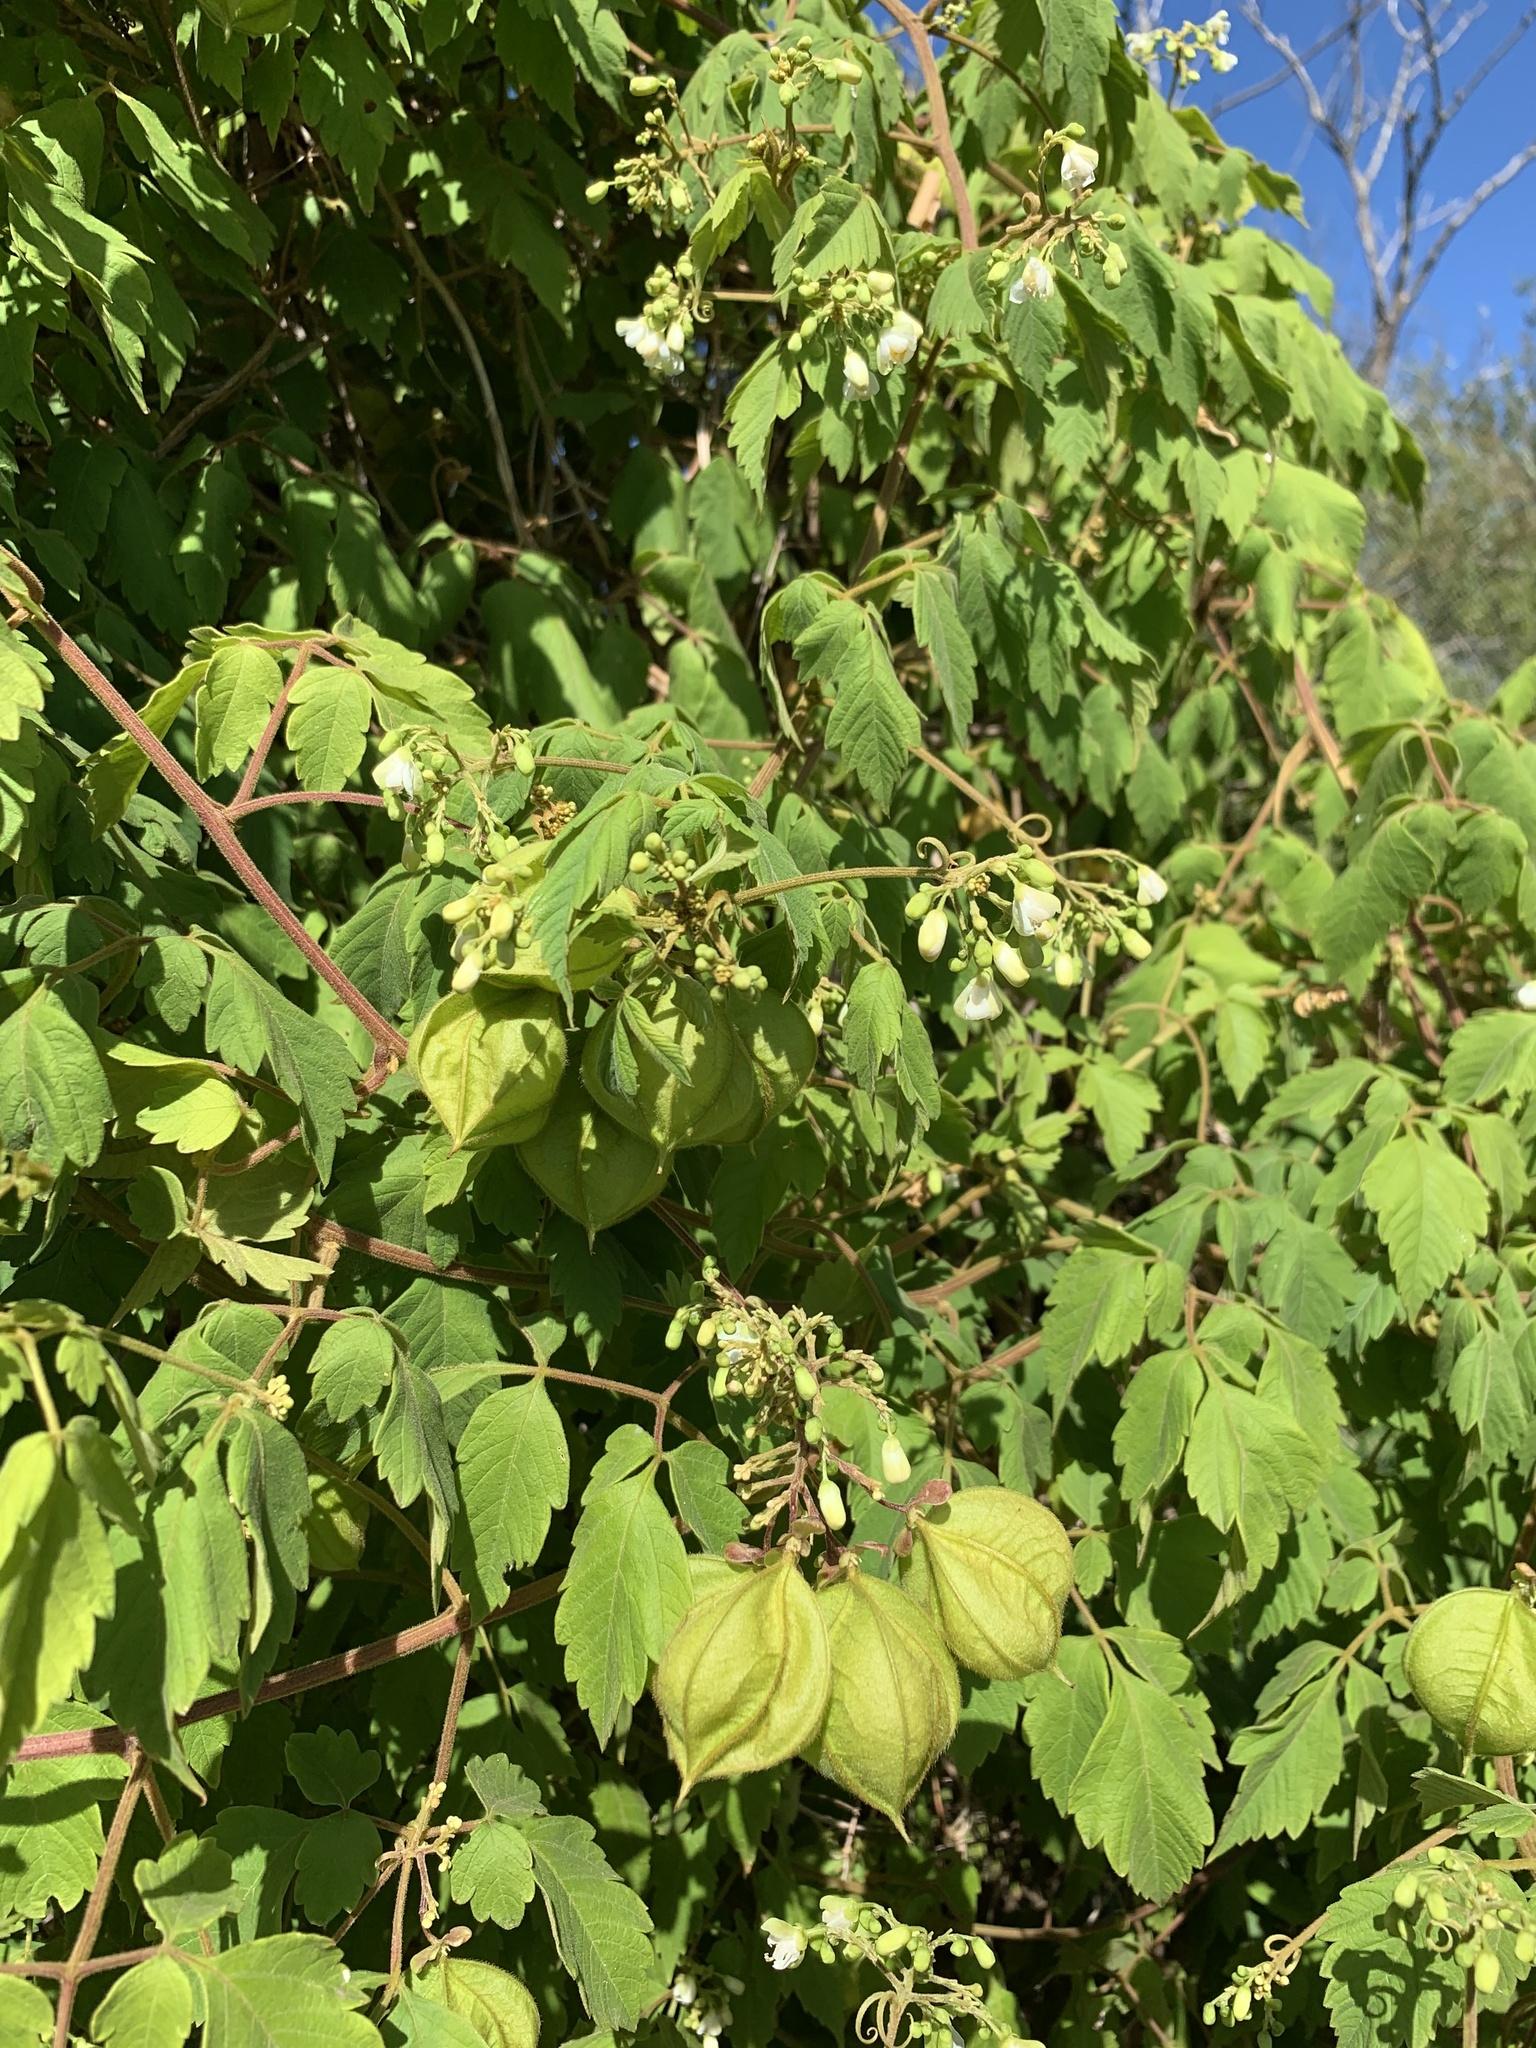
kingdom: Plantae
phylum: Tracheophyta
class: Magnoliopsida
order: Sapindales
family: Sapindaceae
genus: Cardiospermum
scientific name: Cardiospermum grandiflorum
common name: Balloon vine
